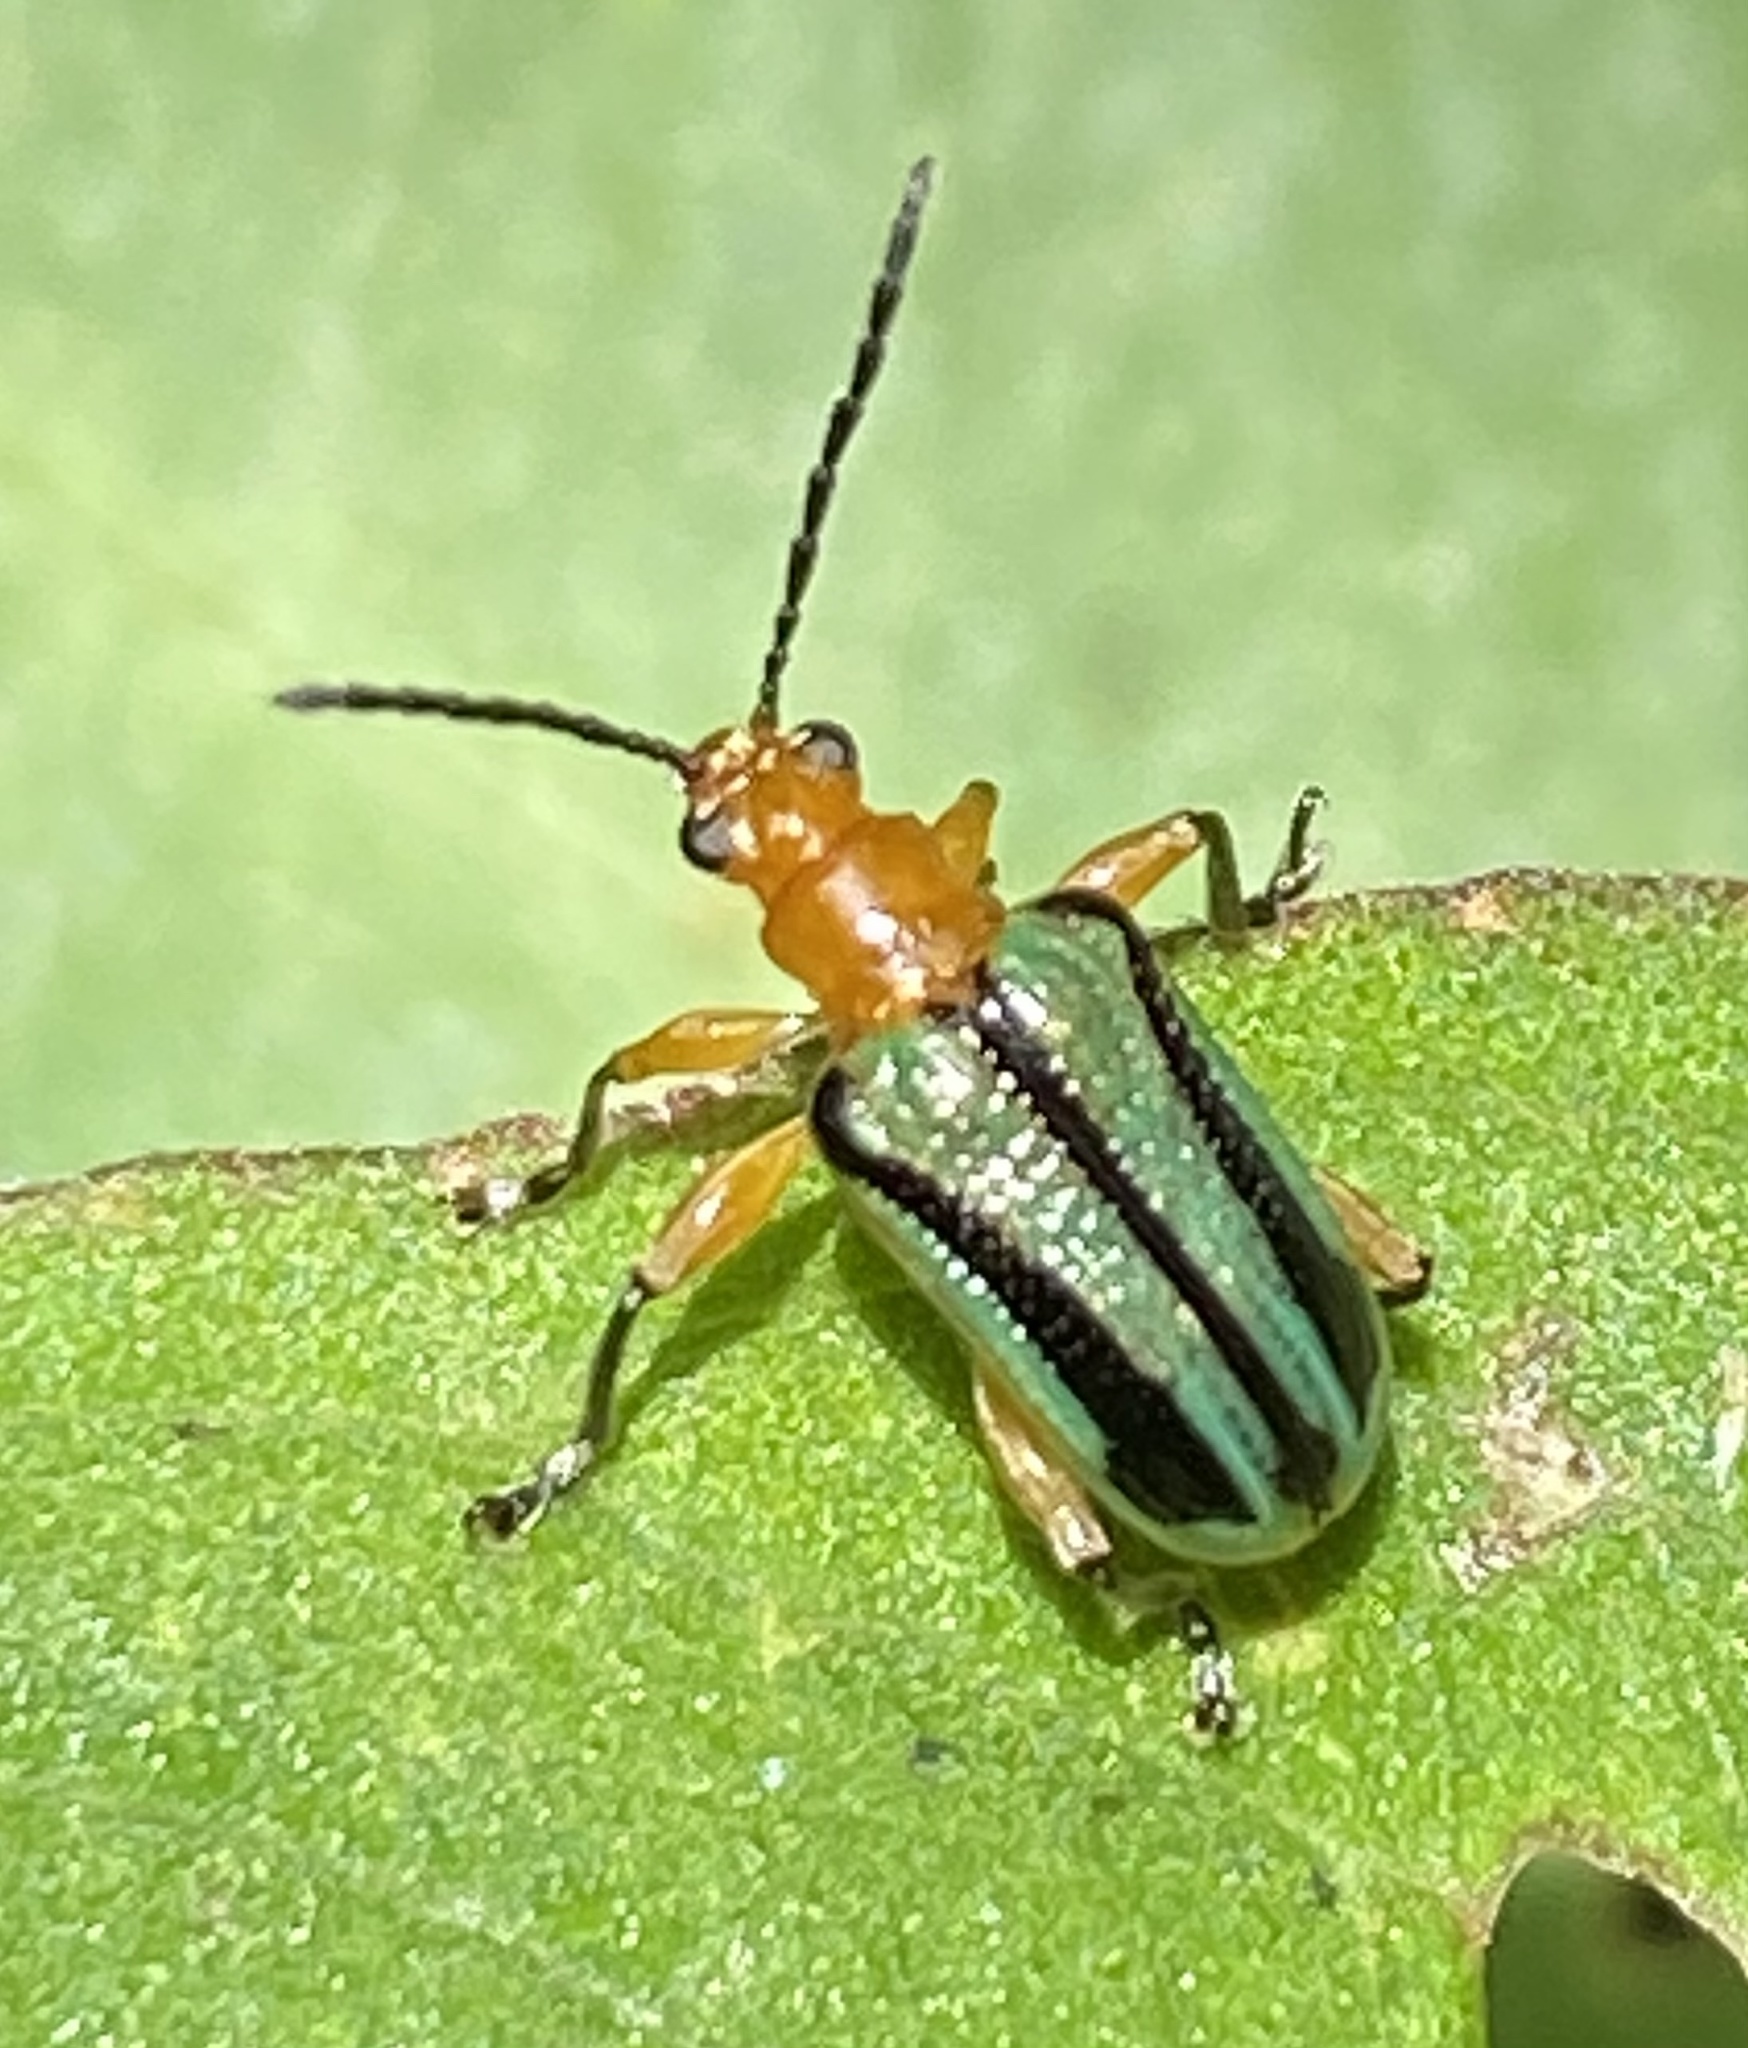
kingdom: Animalia
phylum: Arthropoda
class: Insecta
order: Coleoptera
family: Chrysomelidae
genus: Neolema
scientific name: Neolema
